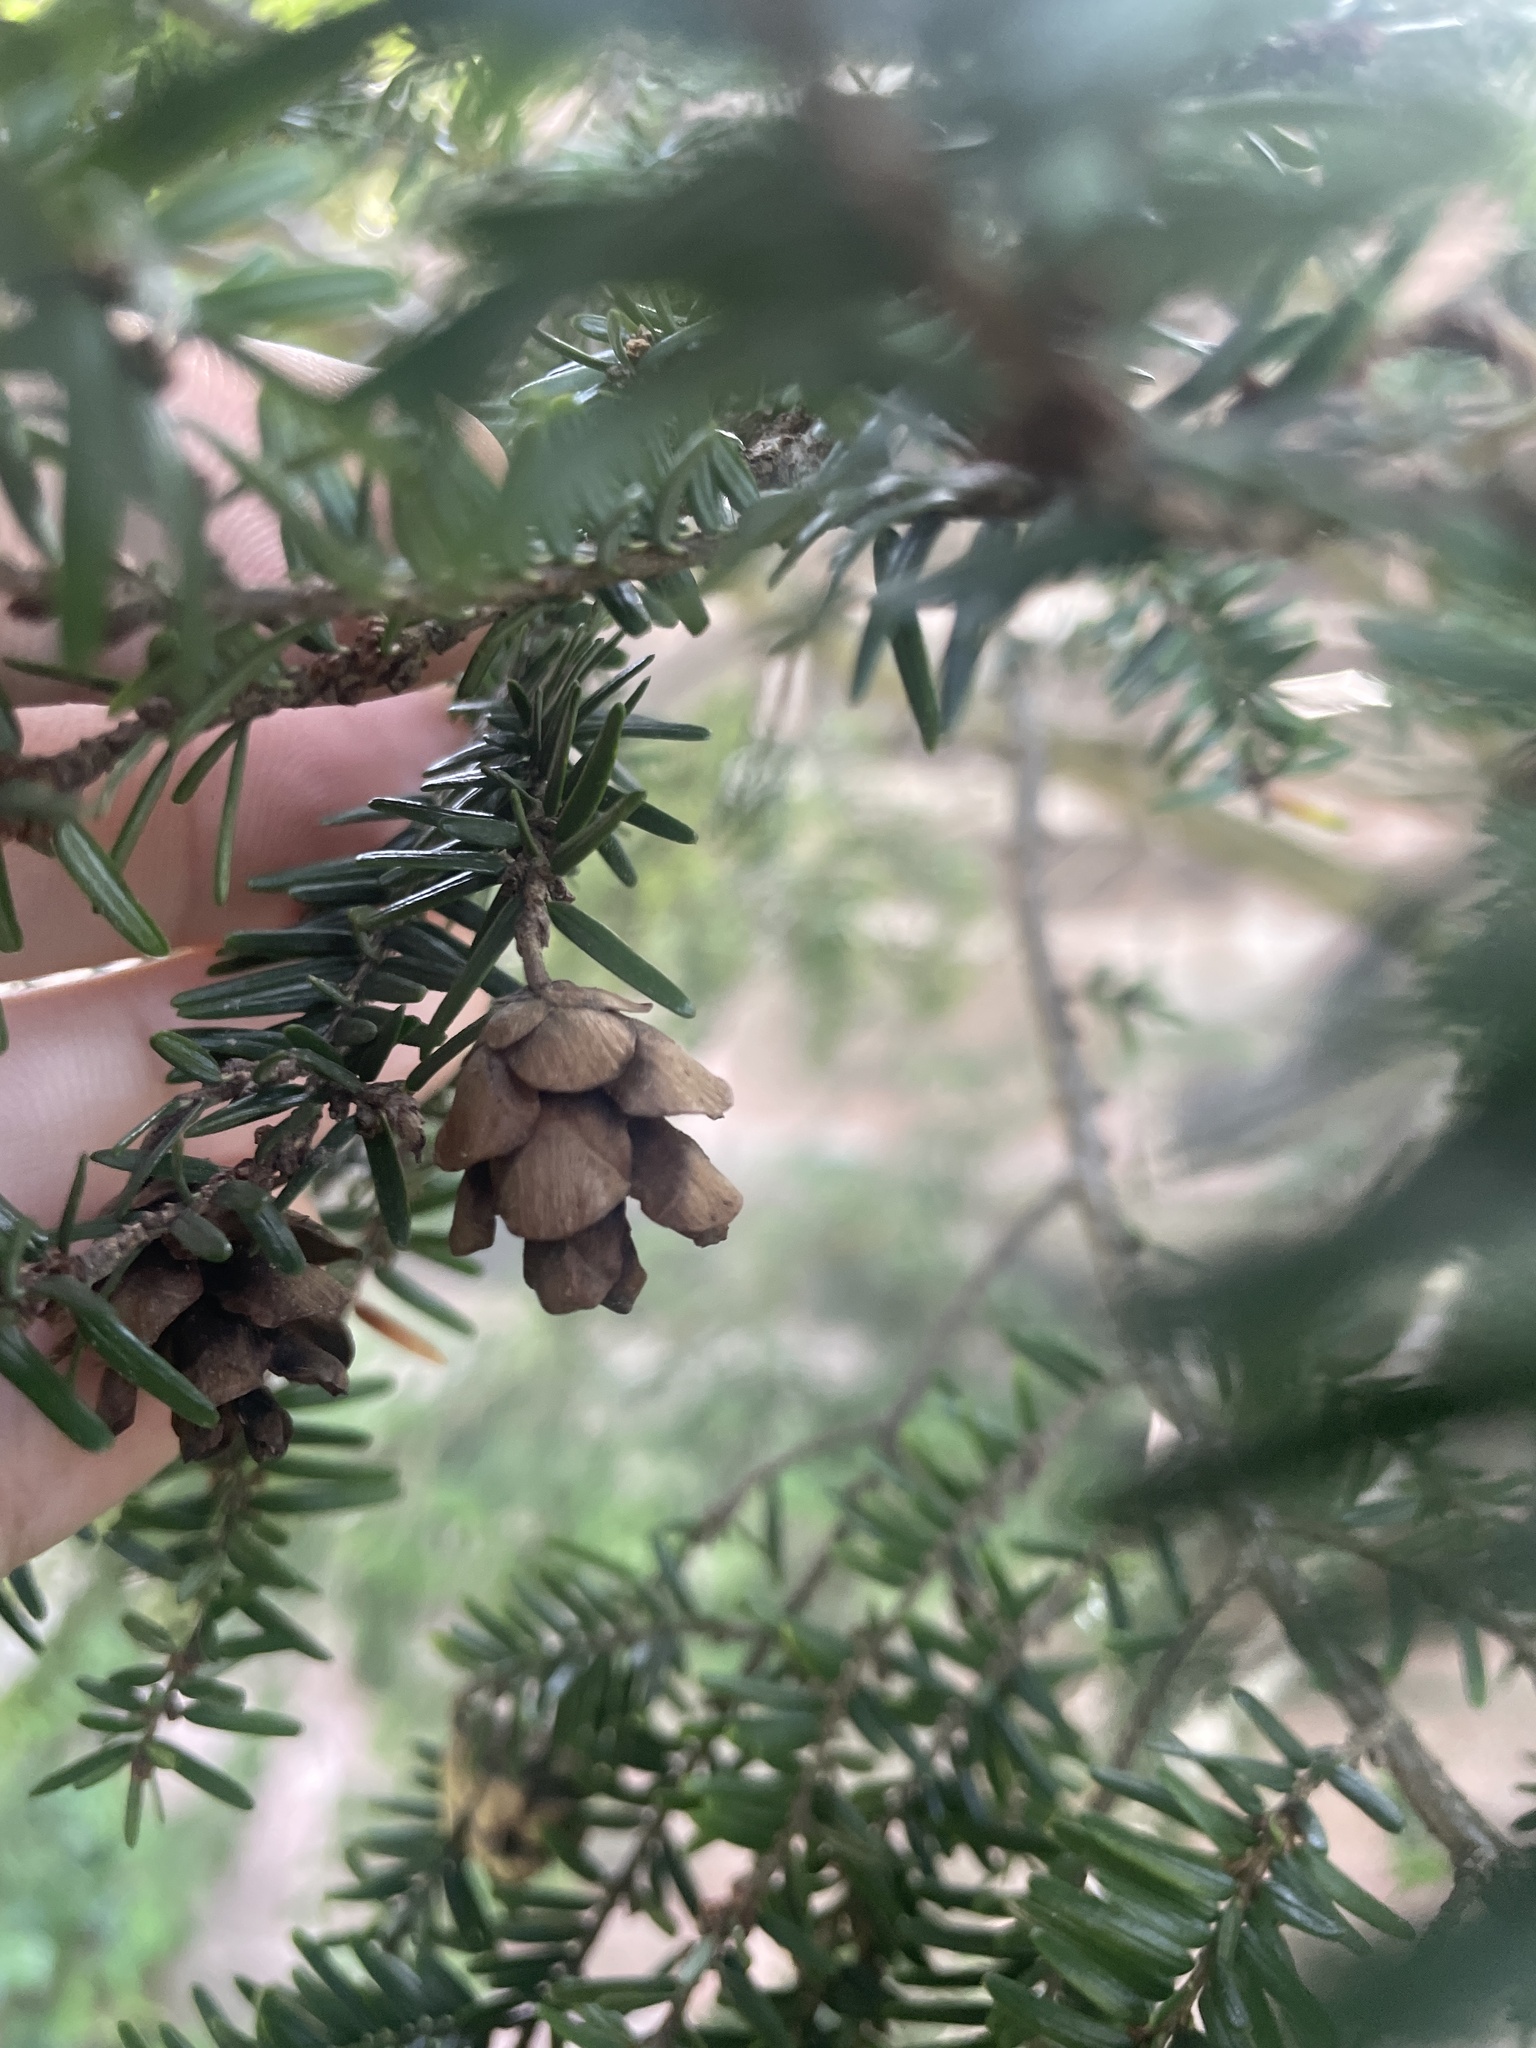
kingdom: Plantae
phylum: Tracheophyta
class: Pinopsida
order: Pinales
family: Pinaceae
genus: Tsuga
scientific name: Tsuga canadensis
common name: Eastern hemlock
